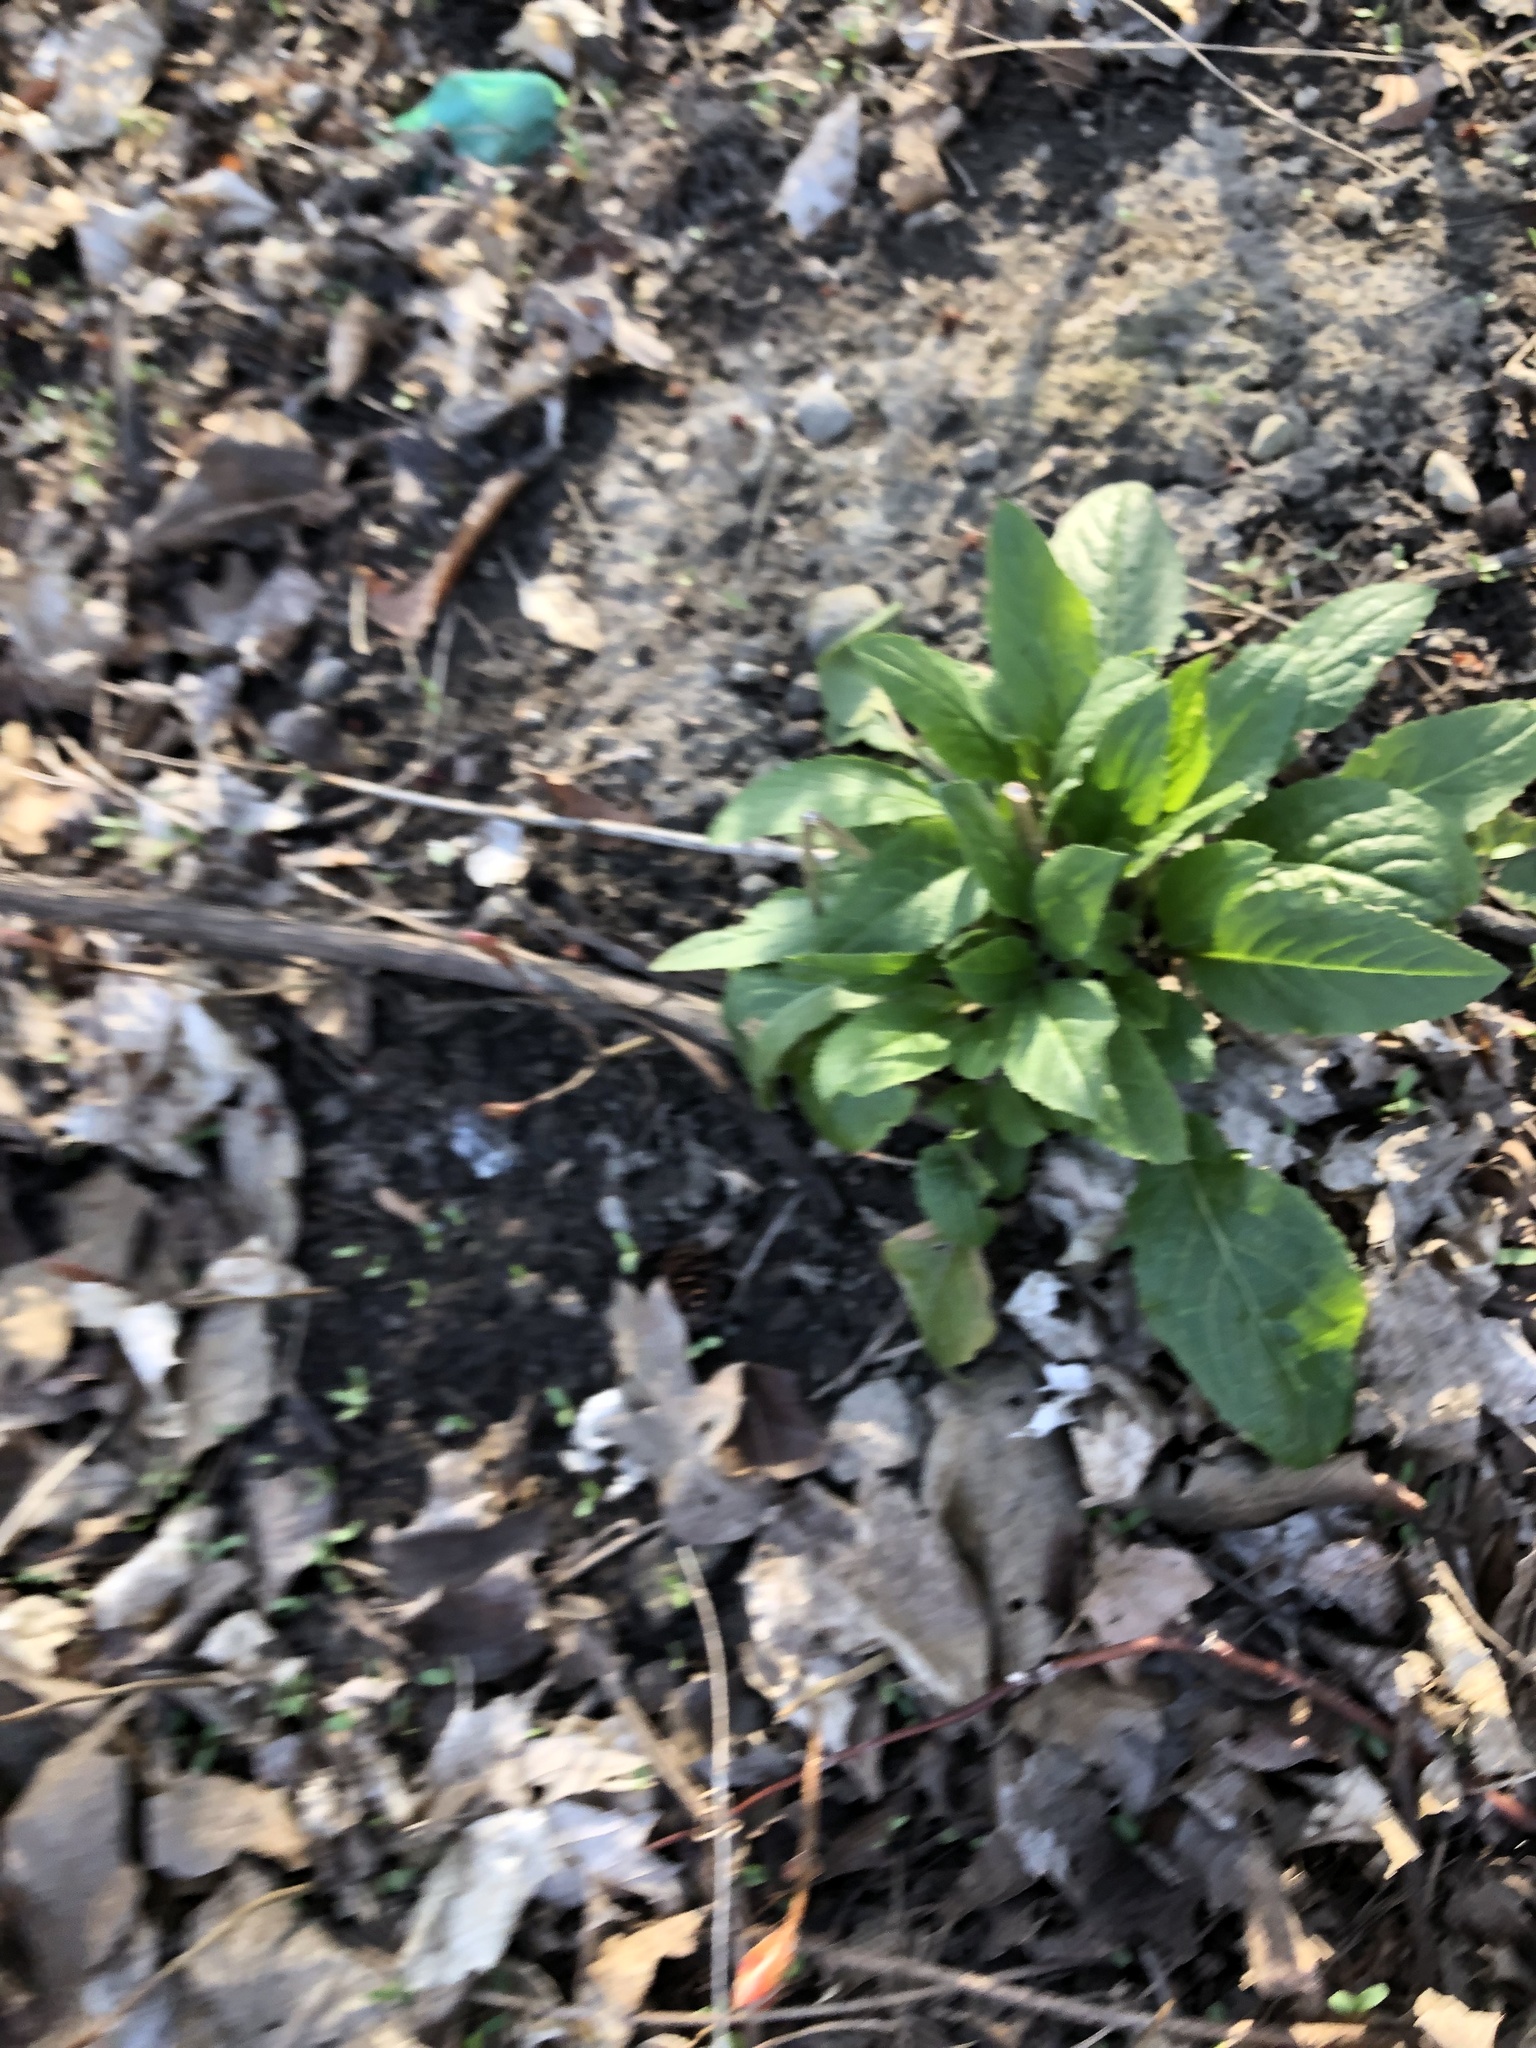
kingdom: Plantae
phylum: Tracheophyta
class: Magnoliopsida
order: Brassicales
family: Brassicaceae
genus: Hesperis
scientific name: Hesperis matronalis
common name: Dame's-violet
